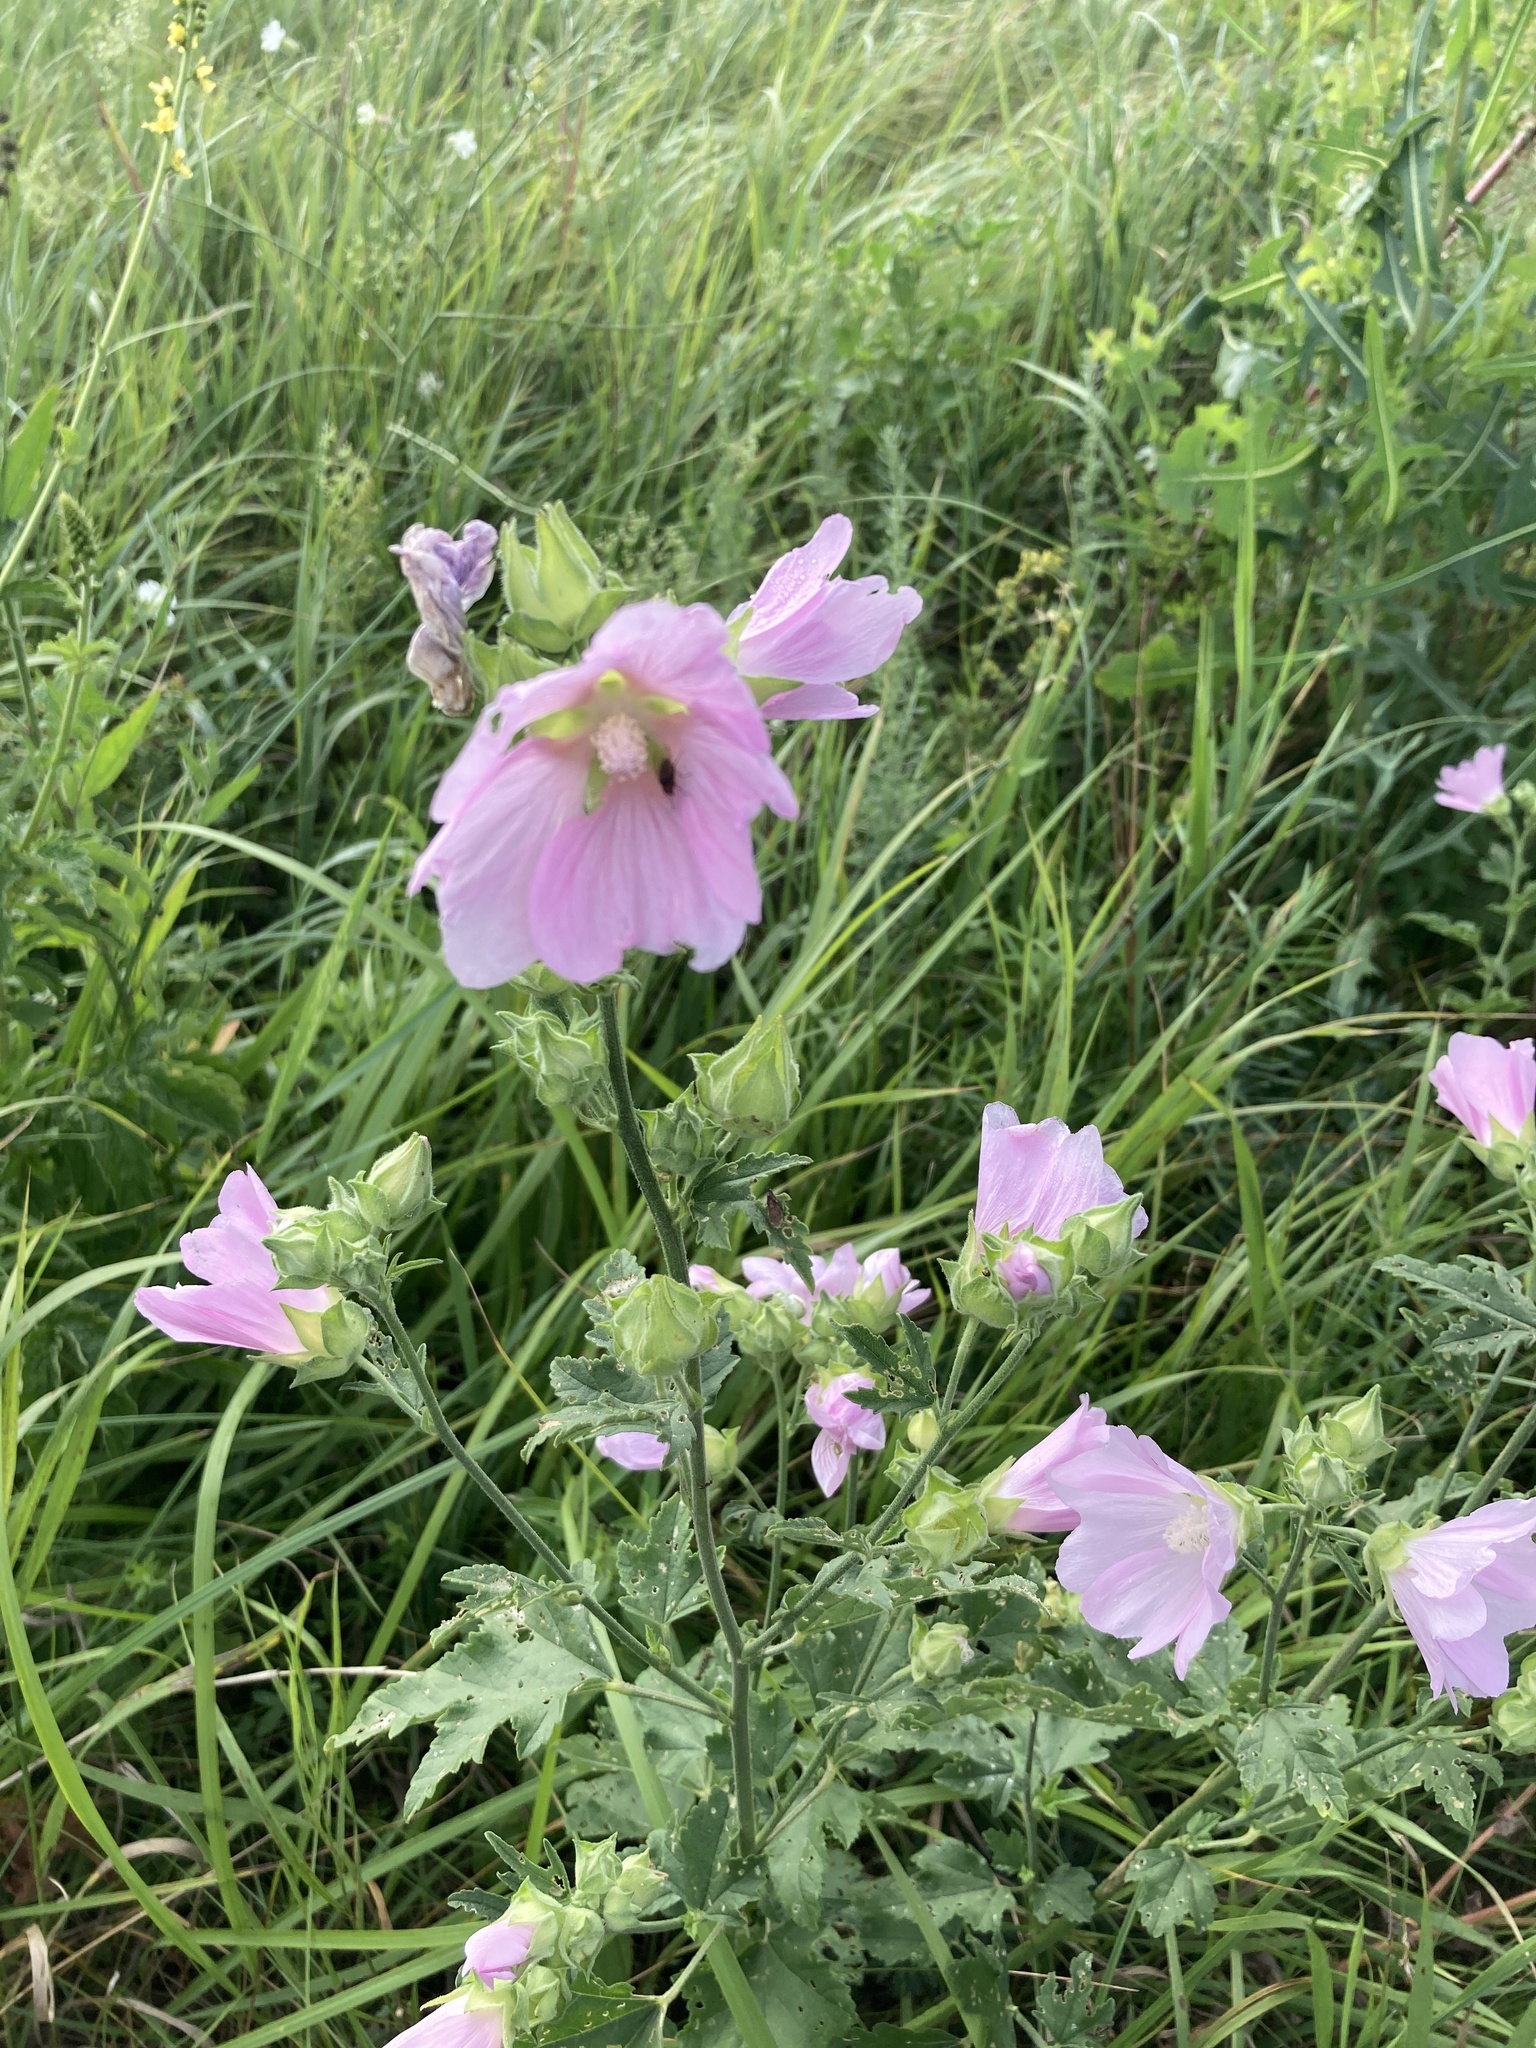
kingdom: Plantae
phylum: Tracheophyta
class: Magnoliopsida
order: Malvales
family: Malvaceae
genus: Malva
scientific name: Malva thuringiaca
